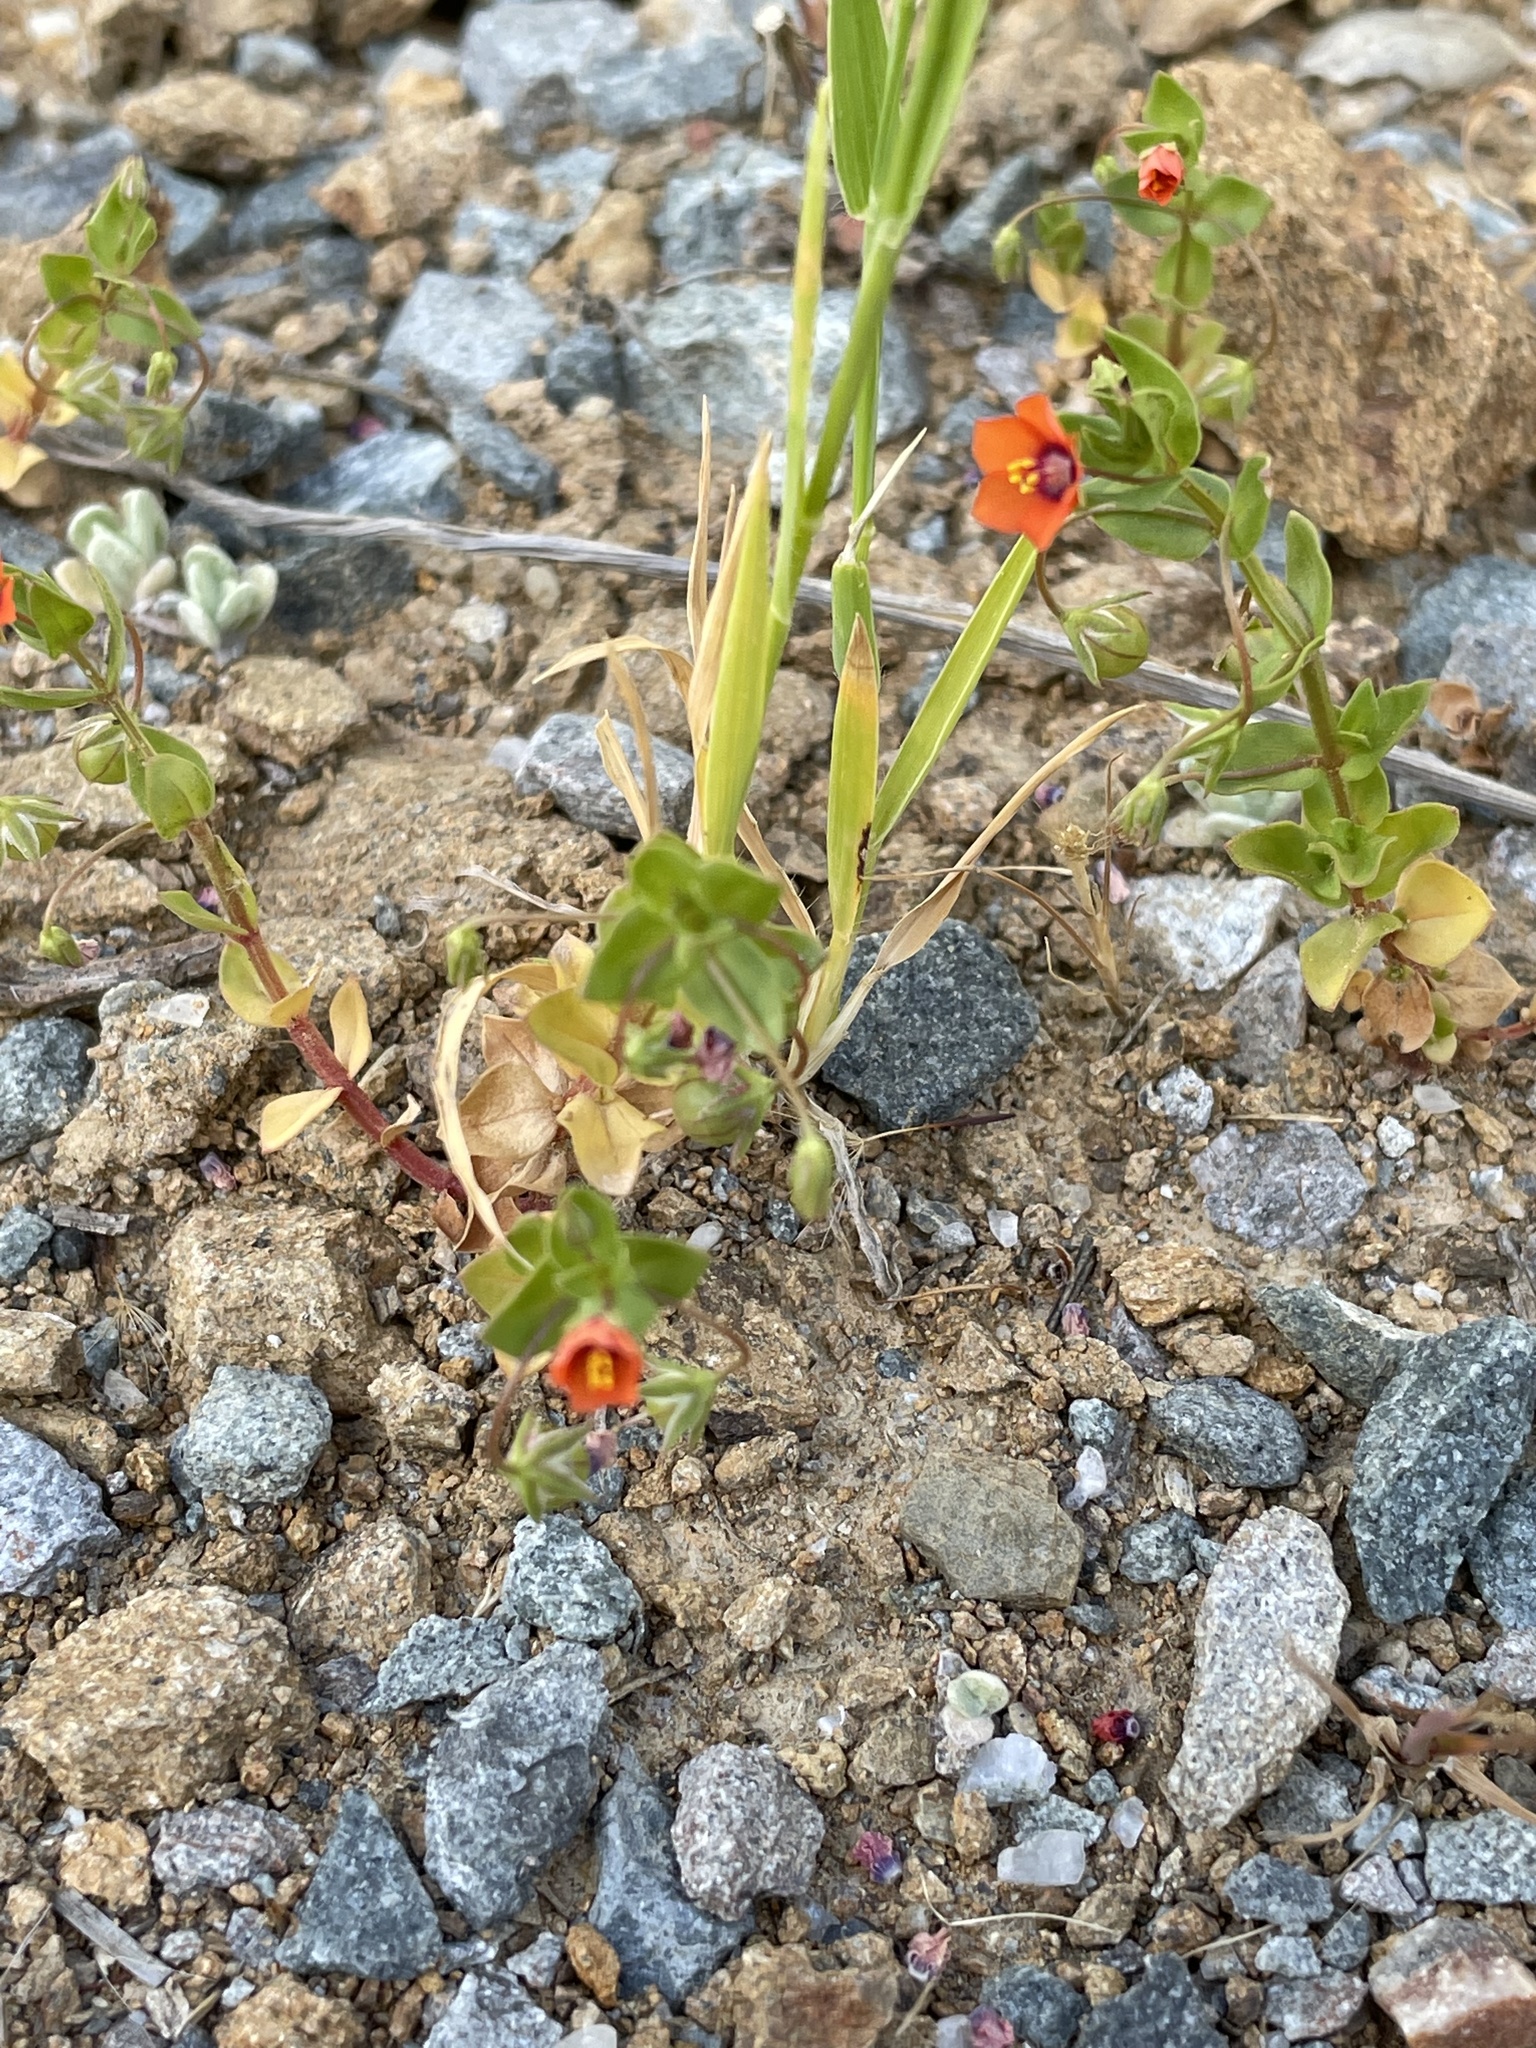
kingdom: Plantae
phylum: Tracheophyta
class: Magnoliopsida
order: Ericales
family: Primulaceae
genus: Lysimachia
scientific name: Lysimachia arvensis
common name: Scarlet pimpernel
